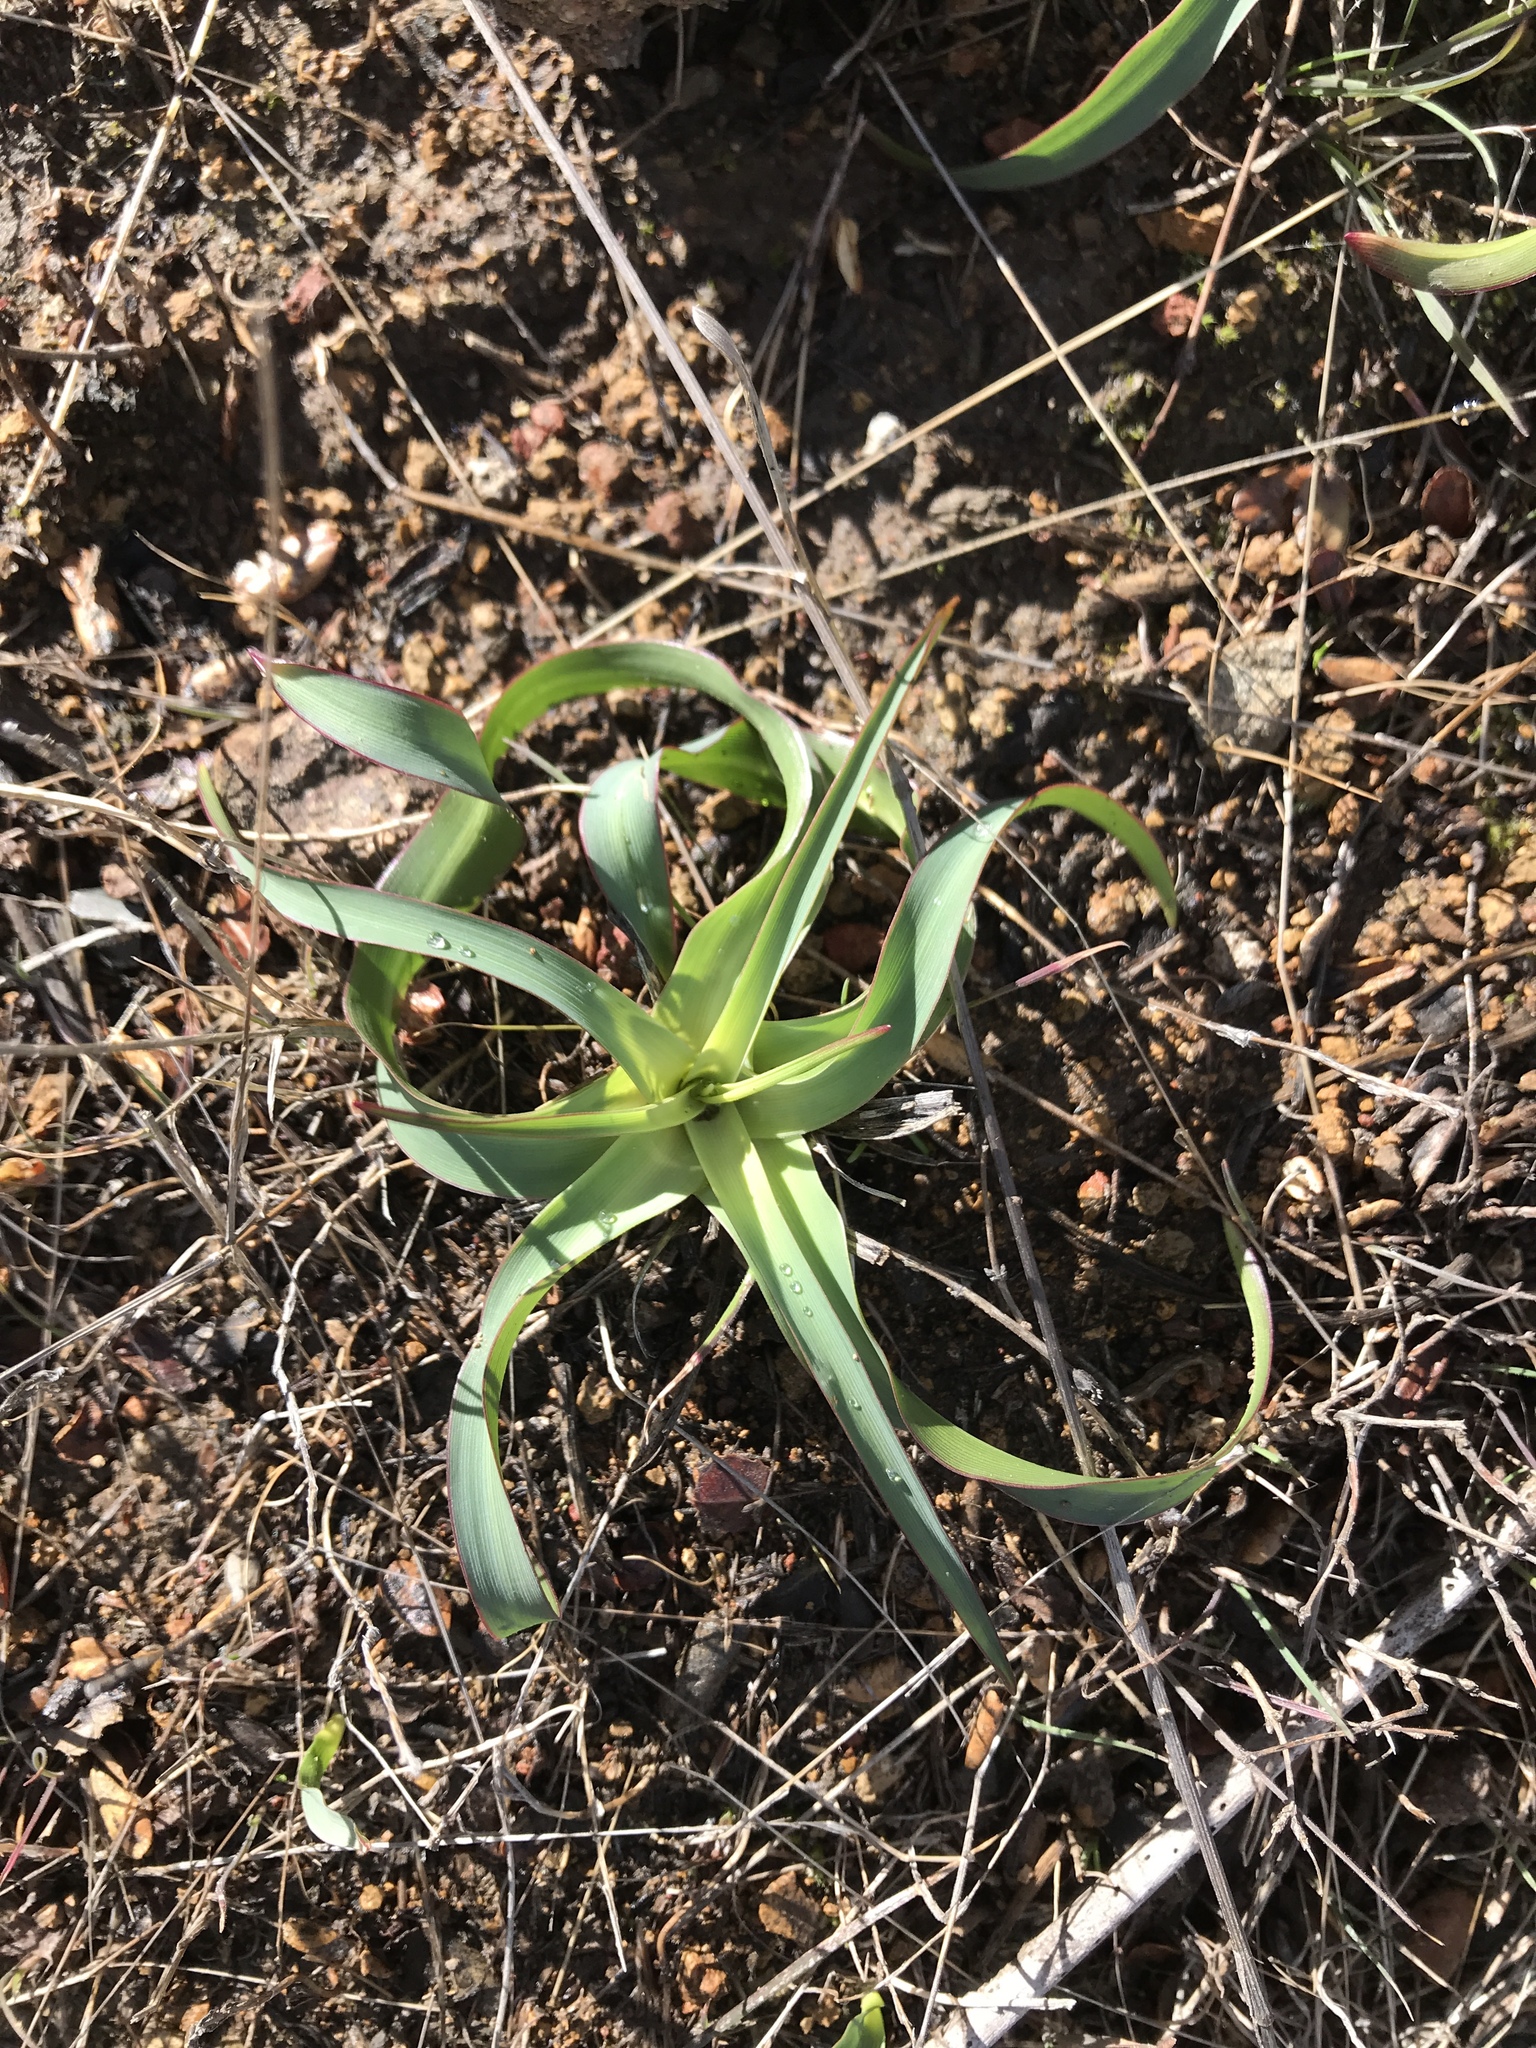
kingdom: Plantae
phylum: Tracheophyta
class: Liliopsida
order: Asparagales
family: Asparagaceae
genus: Chlorogalum
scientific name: Chlorogalum pomeridianum
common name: Amole
